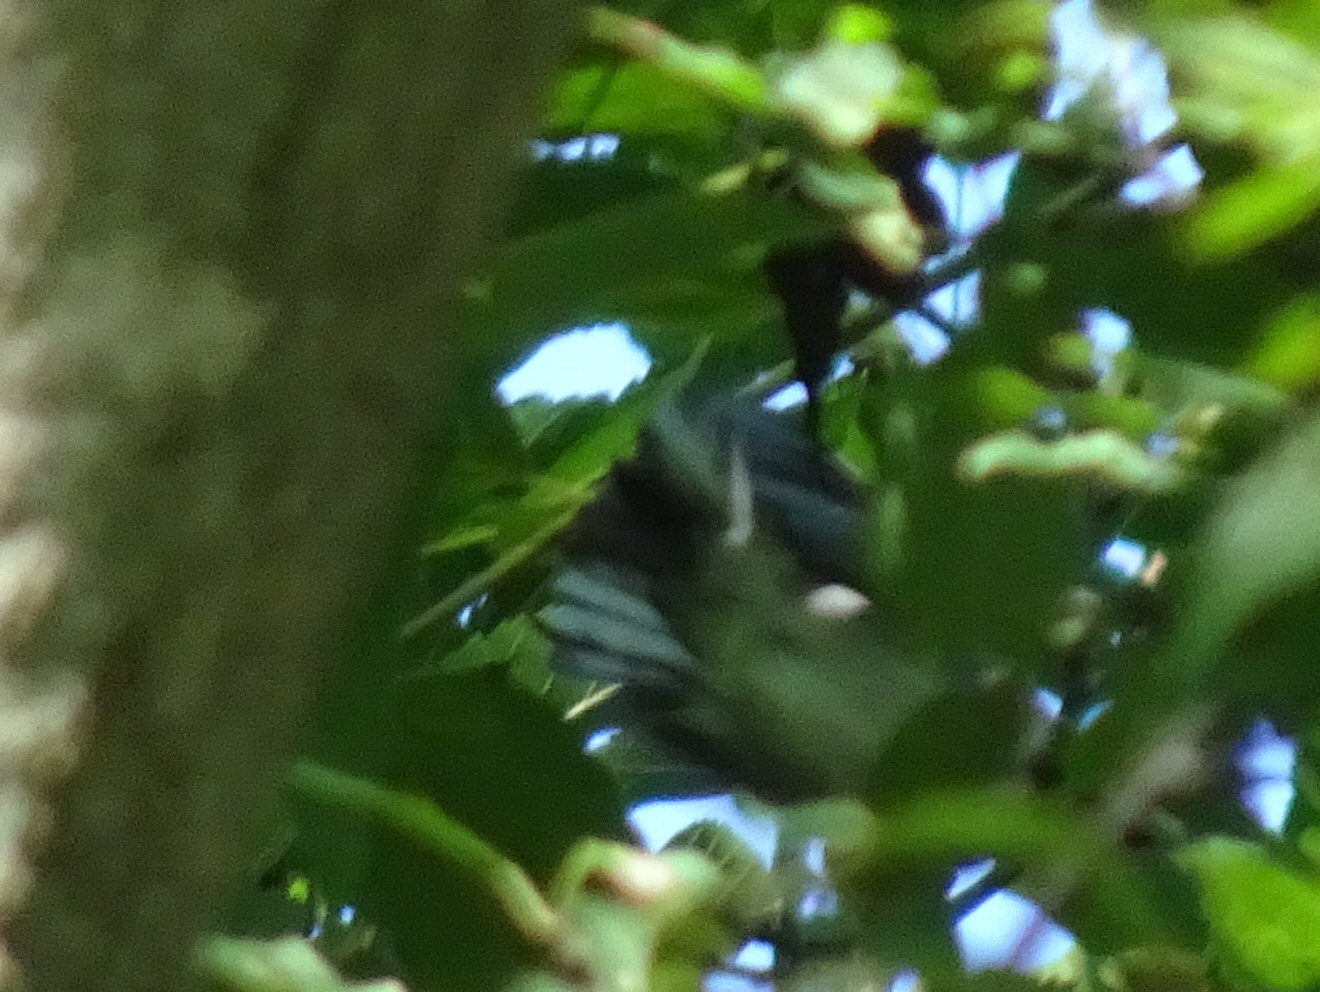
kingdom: Animalia
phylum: Chordata
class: Aves
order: Passeriformes
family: Parulidae
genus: Vermivora
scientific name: Vermivora chrysoptera
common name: Golden-winged warbler
